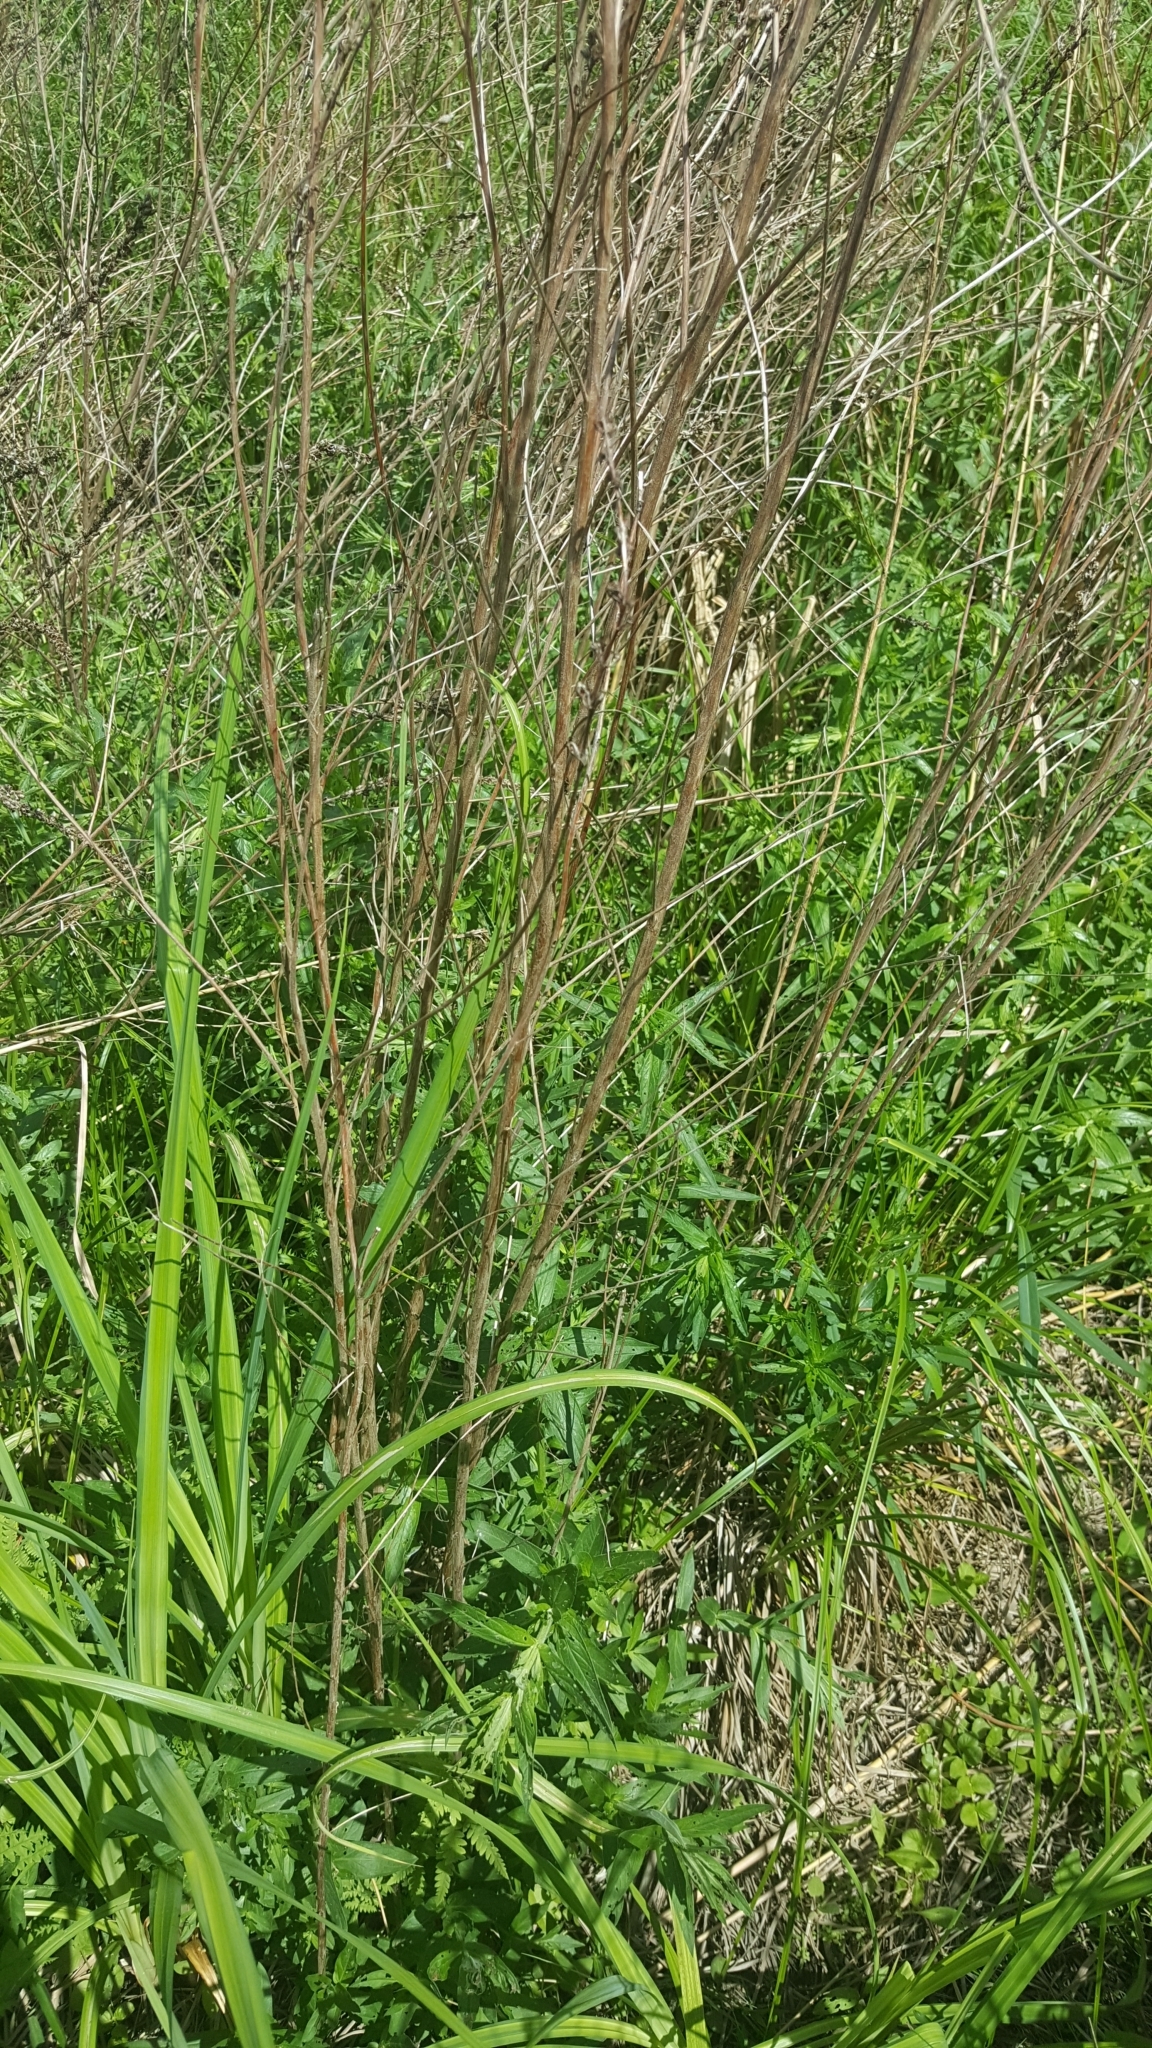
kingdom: Plantae
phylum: Tracheophyta
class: Magnoliopsida
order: Myrtales
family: Lythraceae
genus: Lythrum
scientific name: Lythrum salicaria
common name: Purple loosestrife
